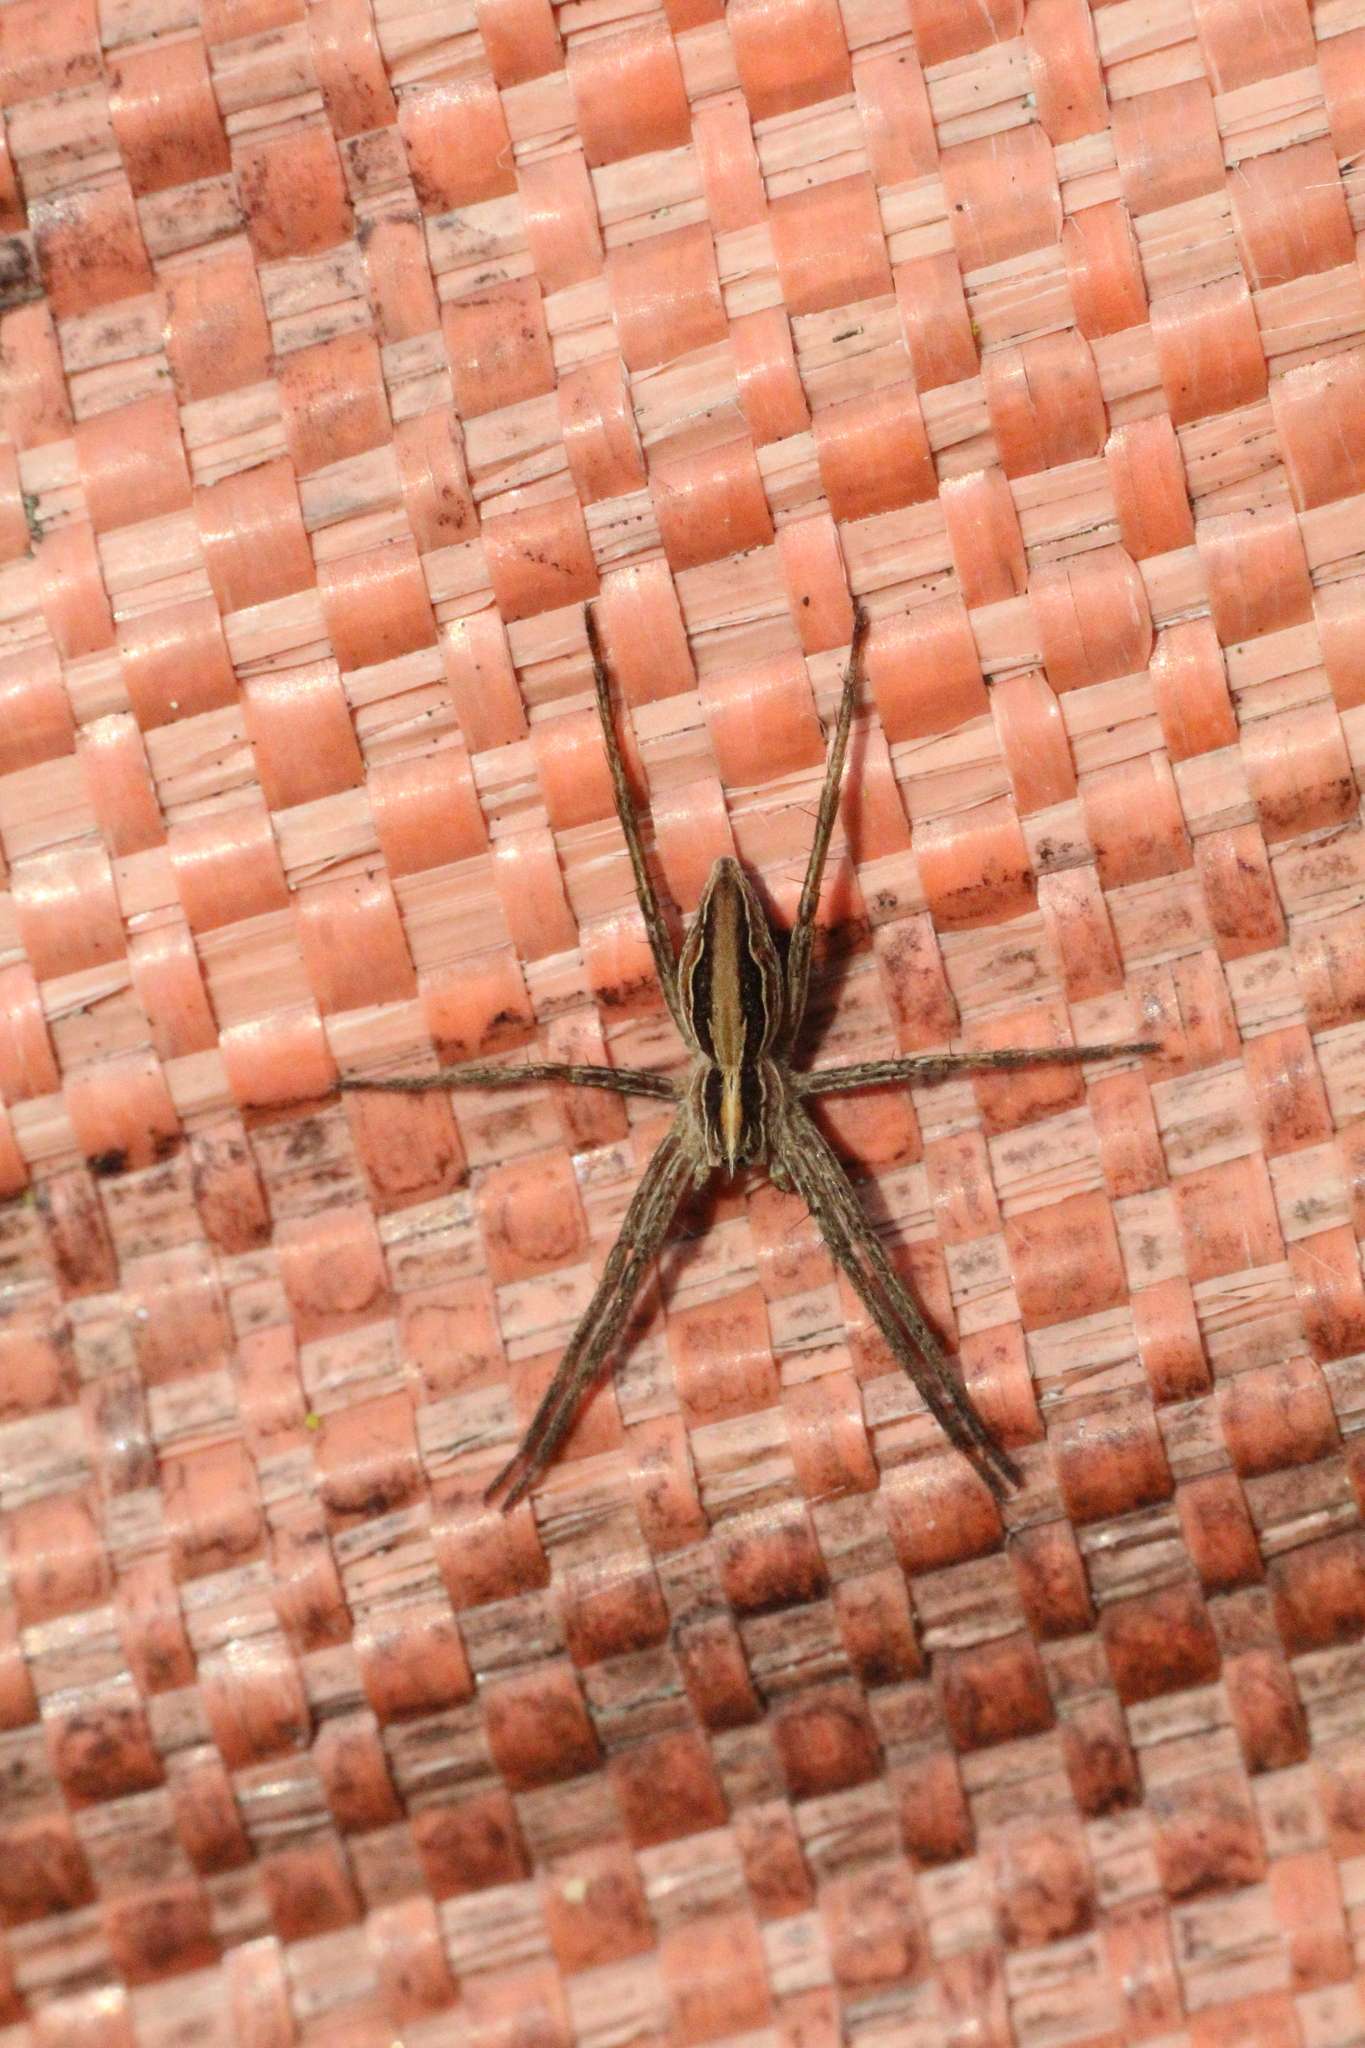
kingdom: Animalia
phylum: Arthropoda
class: Arachnida
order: Araneae
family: Pisauridae
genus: Pisaura
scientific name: Pisaura mirabilis
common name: Tent spider
